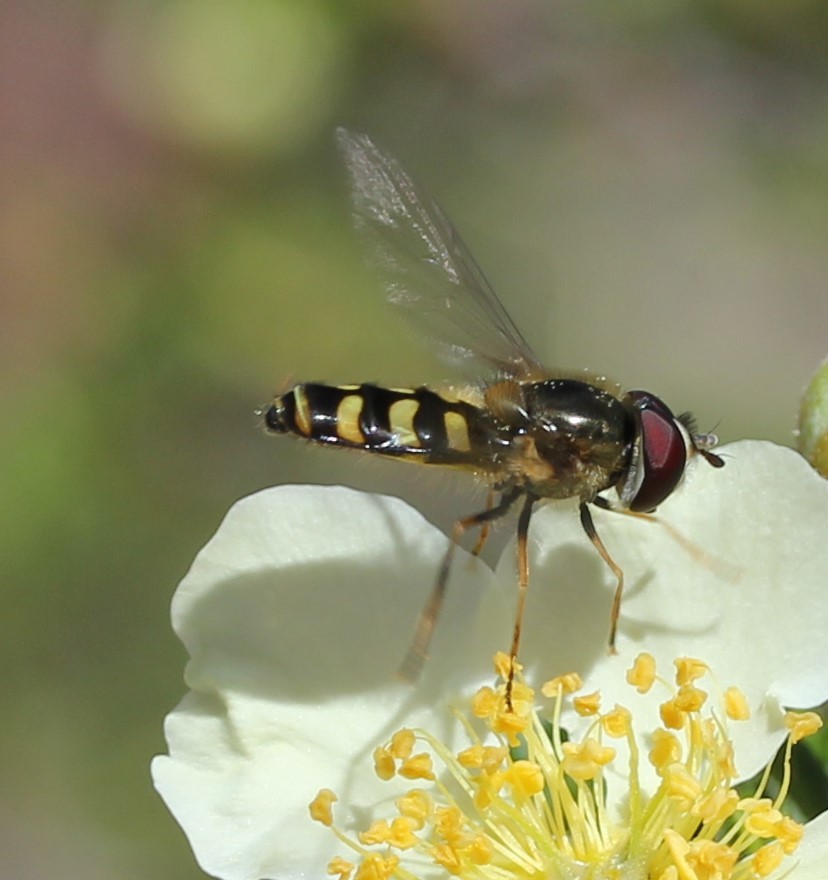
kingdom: Animalia
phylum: Arthropoda
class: Insecta
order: Diptera
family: Syrphidae
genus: Lapposyrphus
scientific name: Lapposyrphus lapponicus
